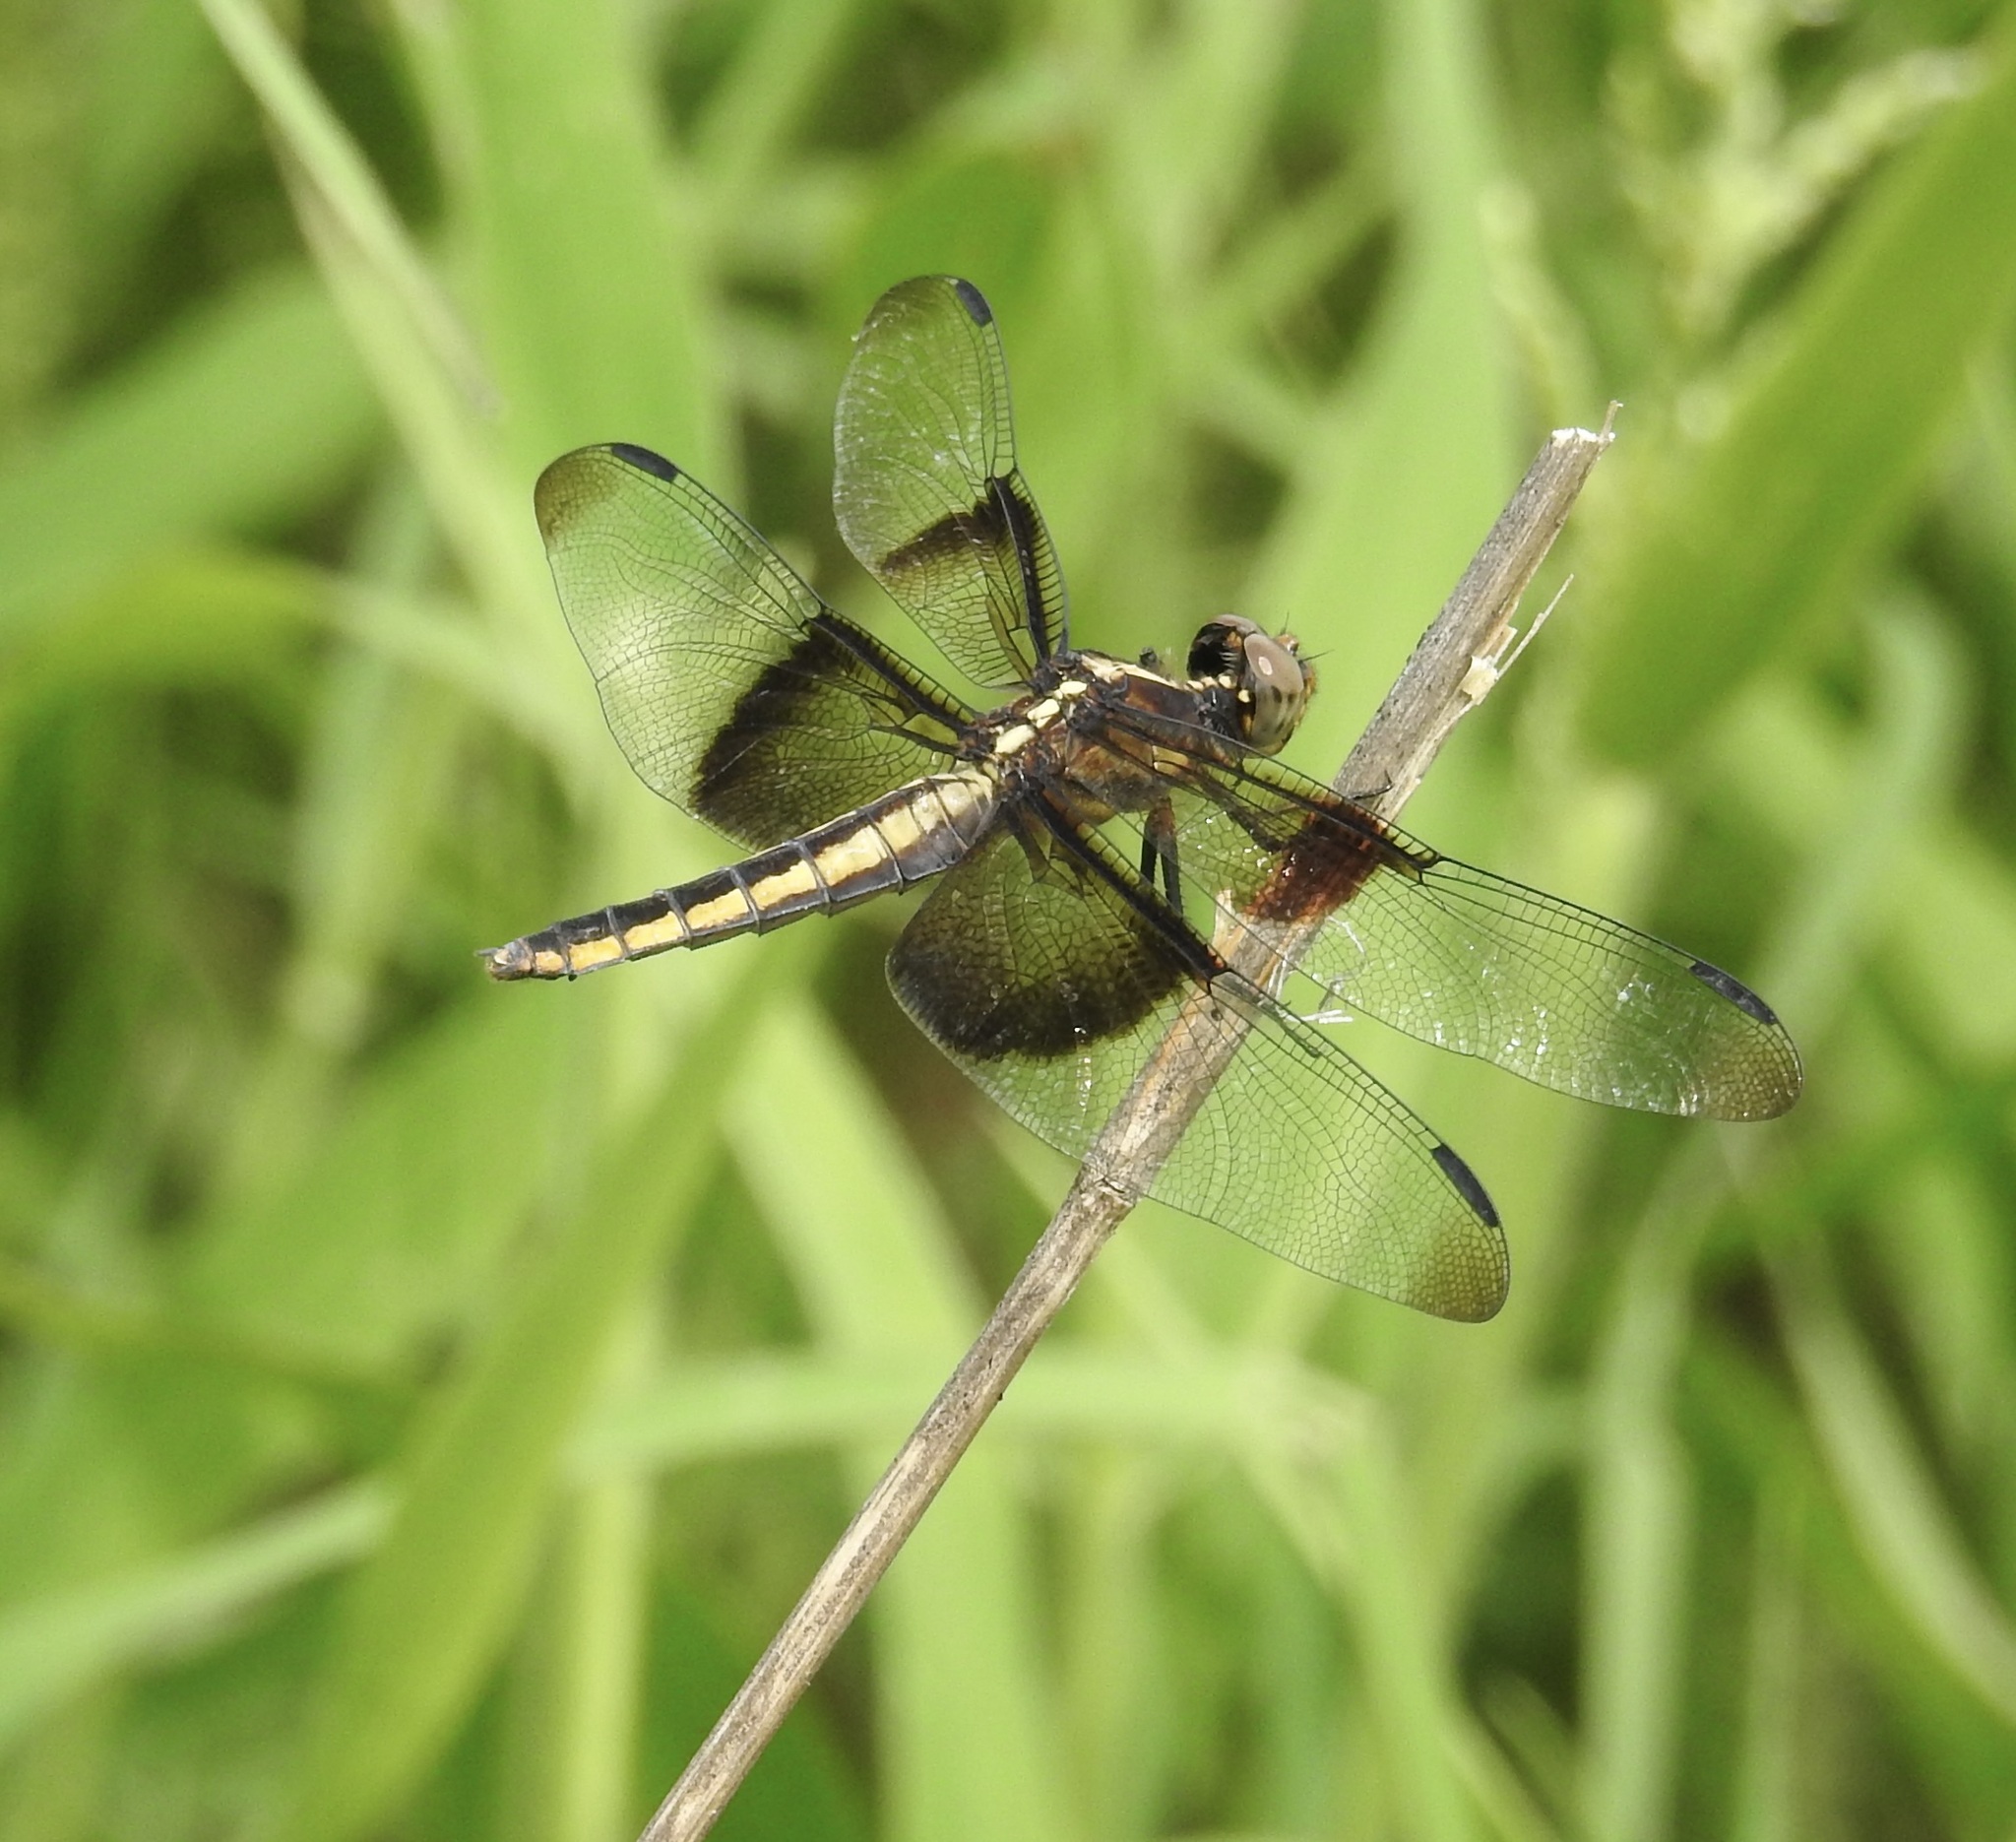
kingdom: Animalia
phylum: Arthropoda
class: Insecta
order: Odonata
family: Libellulidae
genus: Libellula
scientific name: Libellula luctuosa
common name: Widow skimmer
